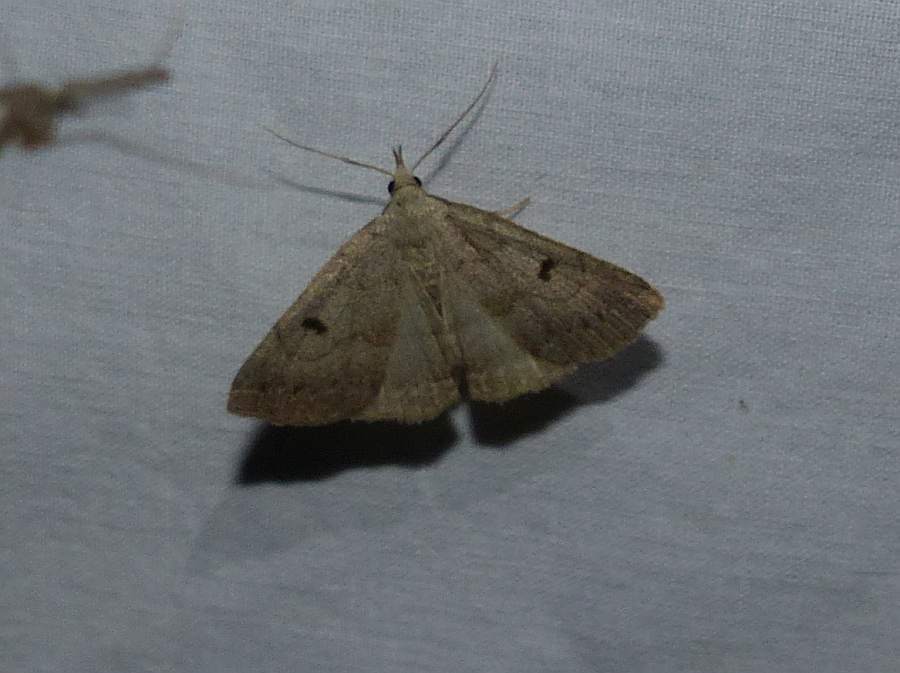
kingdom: Animalia
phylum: Arthropoda
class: Insecta
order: Lepidoptera
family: Erebidae
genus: Macrochilo
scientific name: Macrochilo morbidalis
